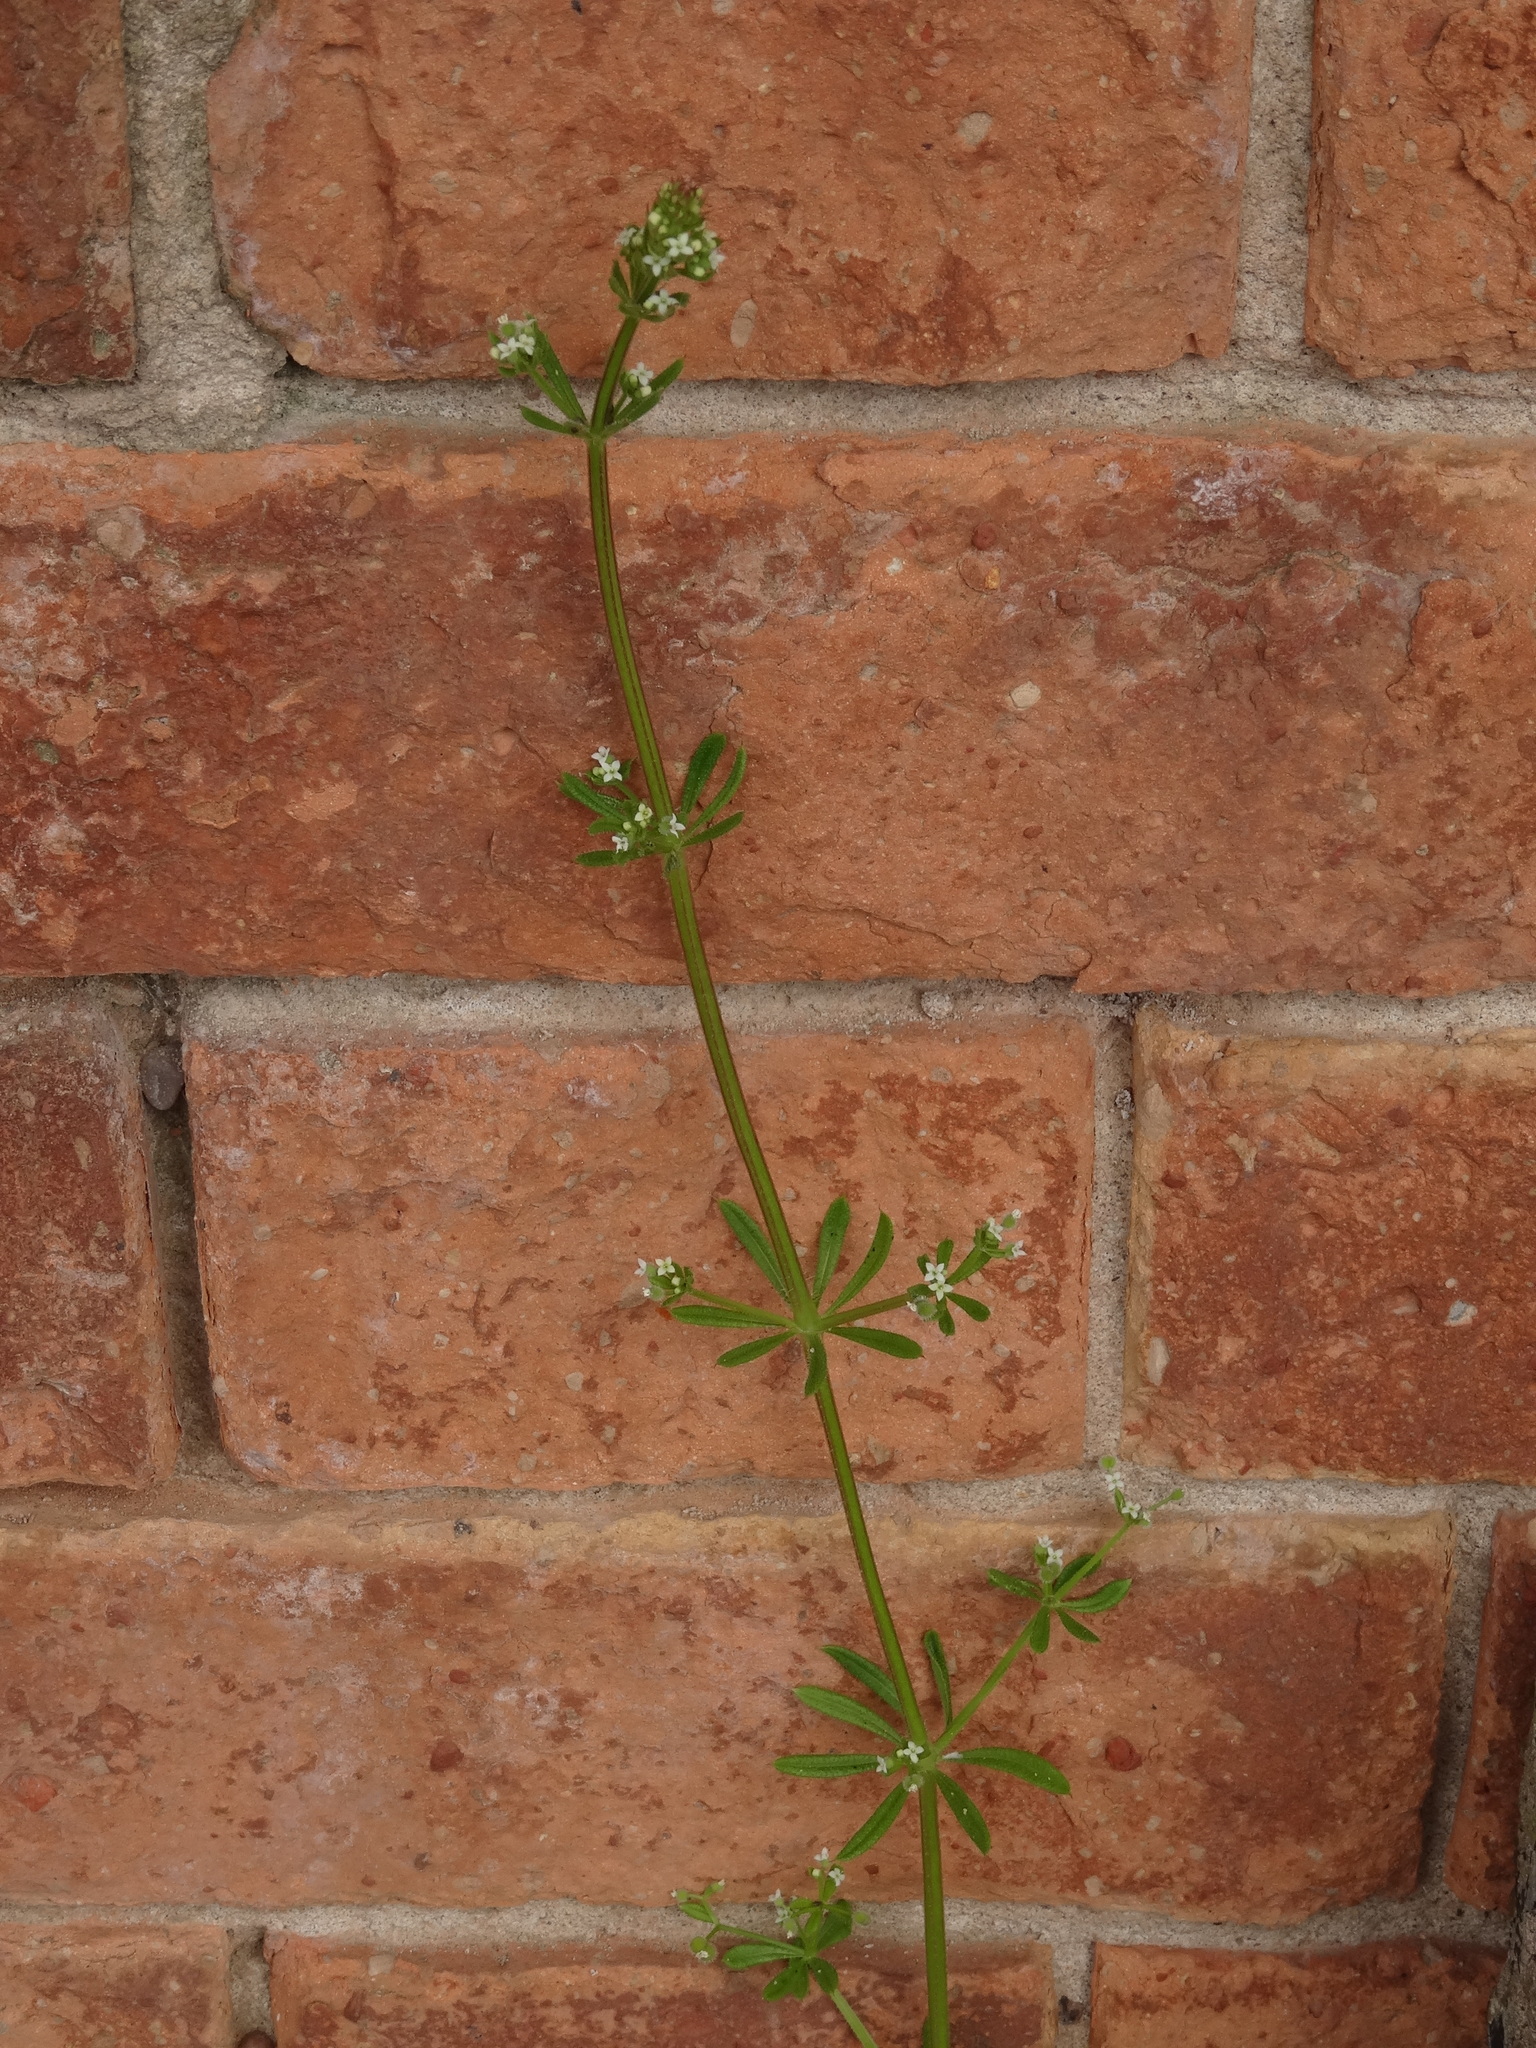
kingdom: Plantae
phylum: Tracheophyta
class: Magnoliopsida
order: Gentianales
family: Rubiaceae
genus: Galium
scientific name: Galium aparine
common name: Cleavers
